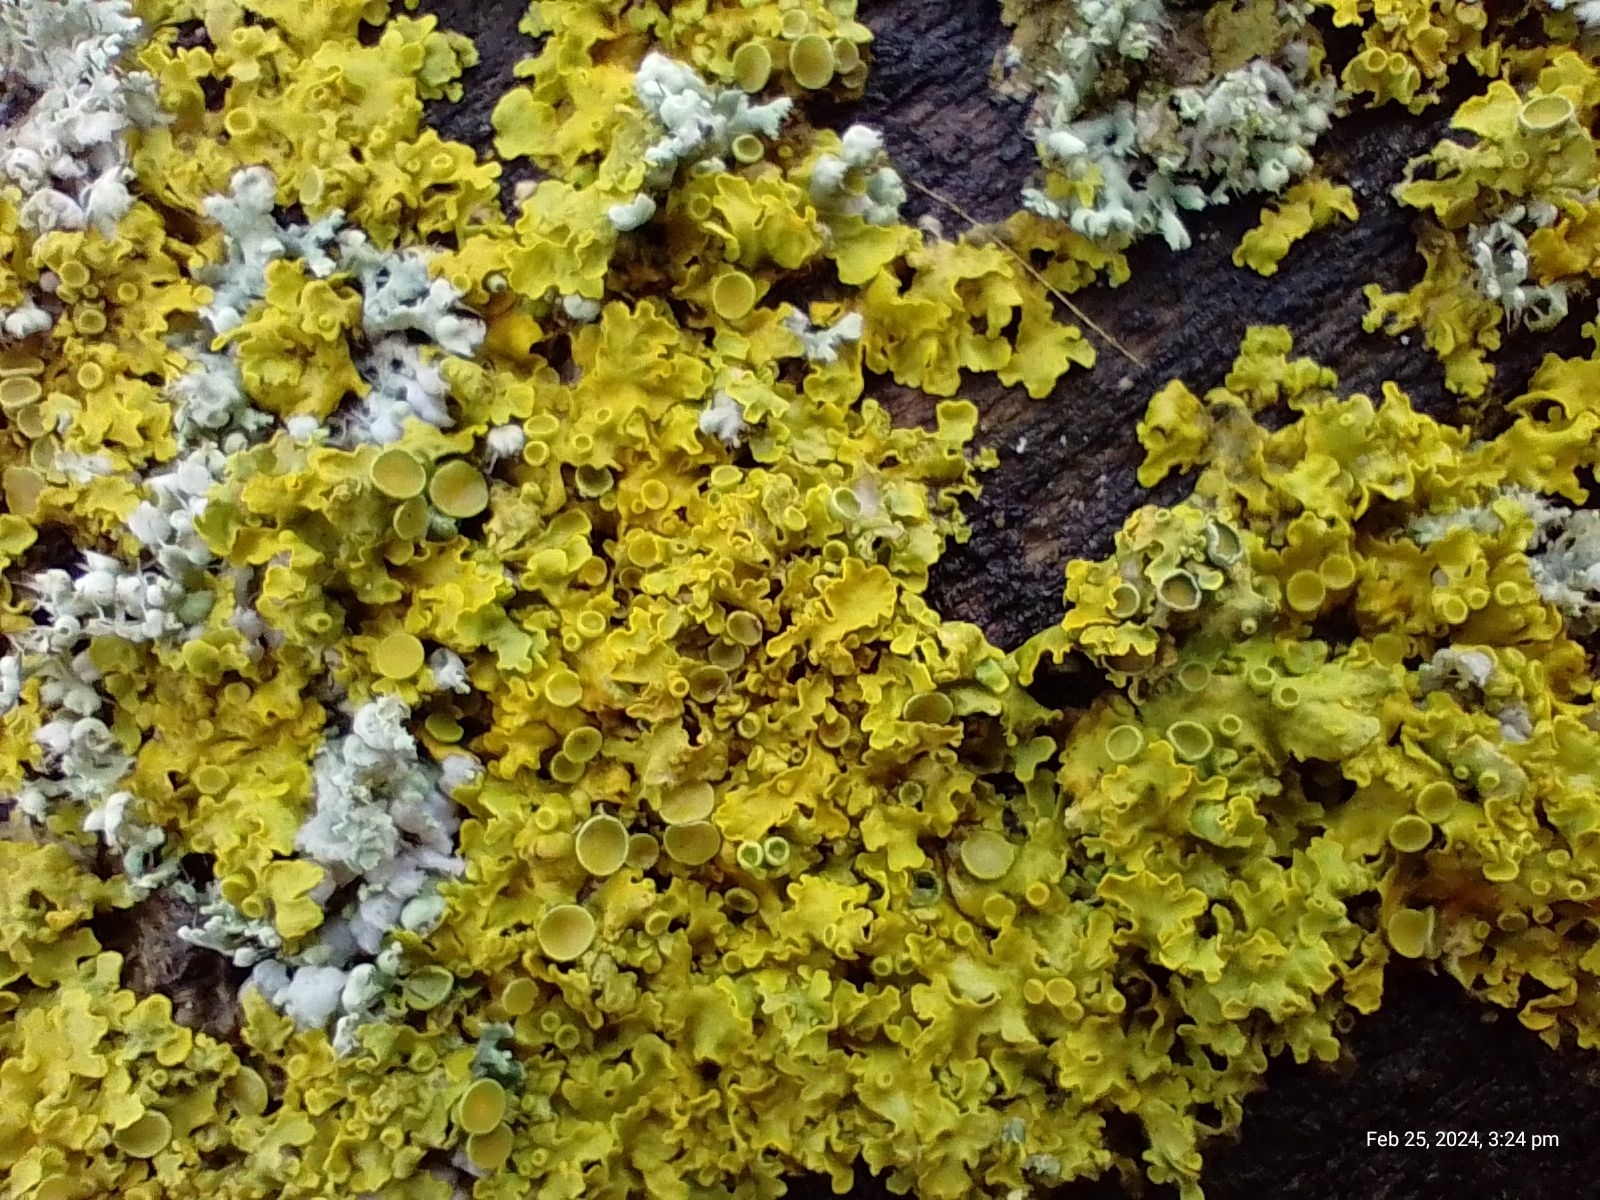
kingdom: Fungi
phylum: Ascomycota
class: Lecanoromycetes
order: Teloschistales
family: Teloschistaceae
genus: Xanthoria
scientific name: Xanthoria parietina
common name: Common orange lichen
